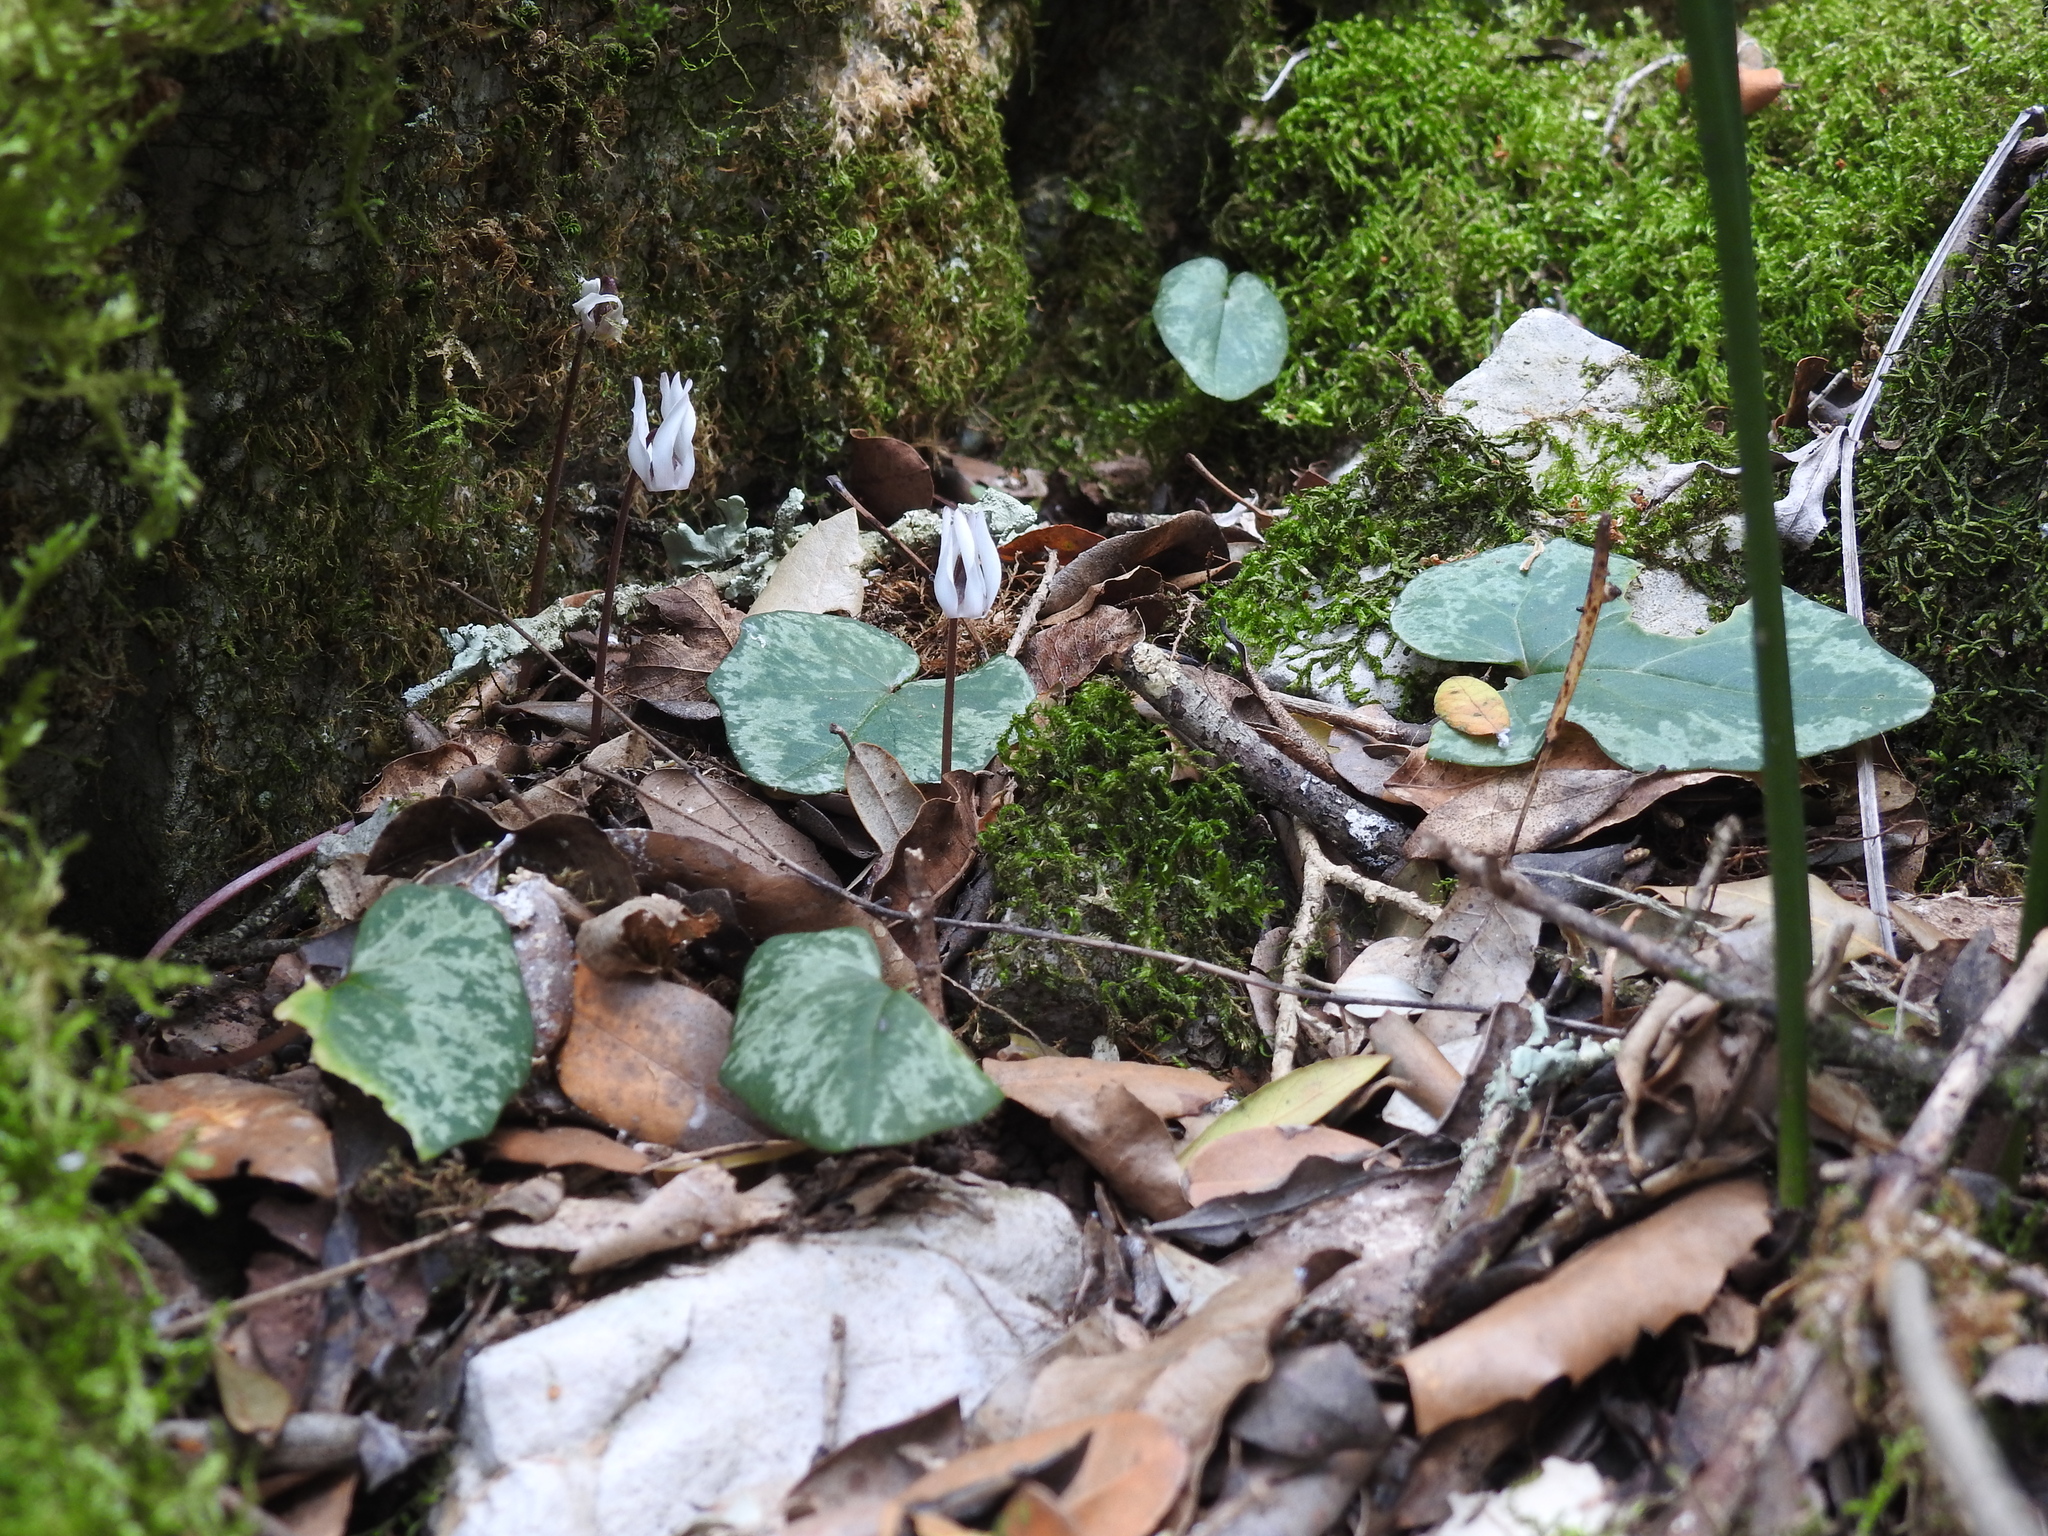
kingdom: Plantae
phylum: Tracheophyta
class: Magnoliopsida
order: Ericales
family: Primulaceae
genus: Cyclamen
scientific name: Cyclamen balearicum
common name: Majorca cyclamen
